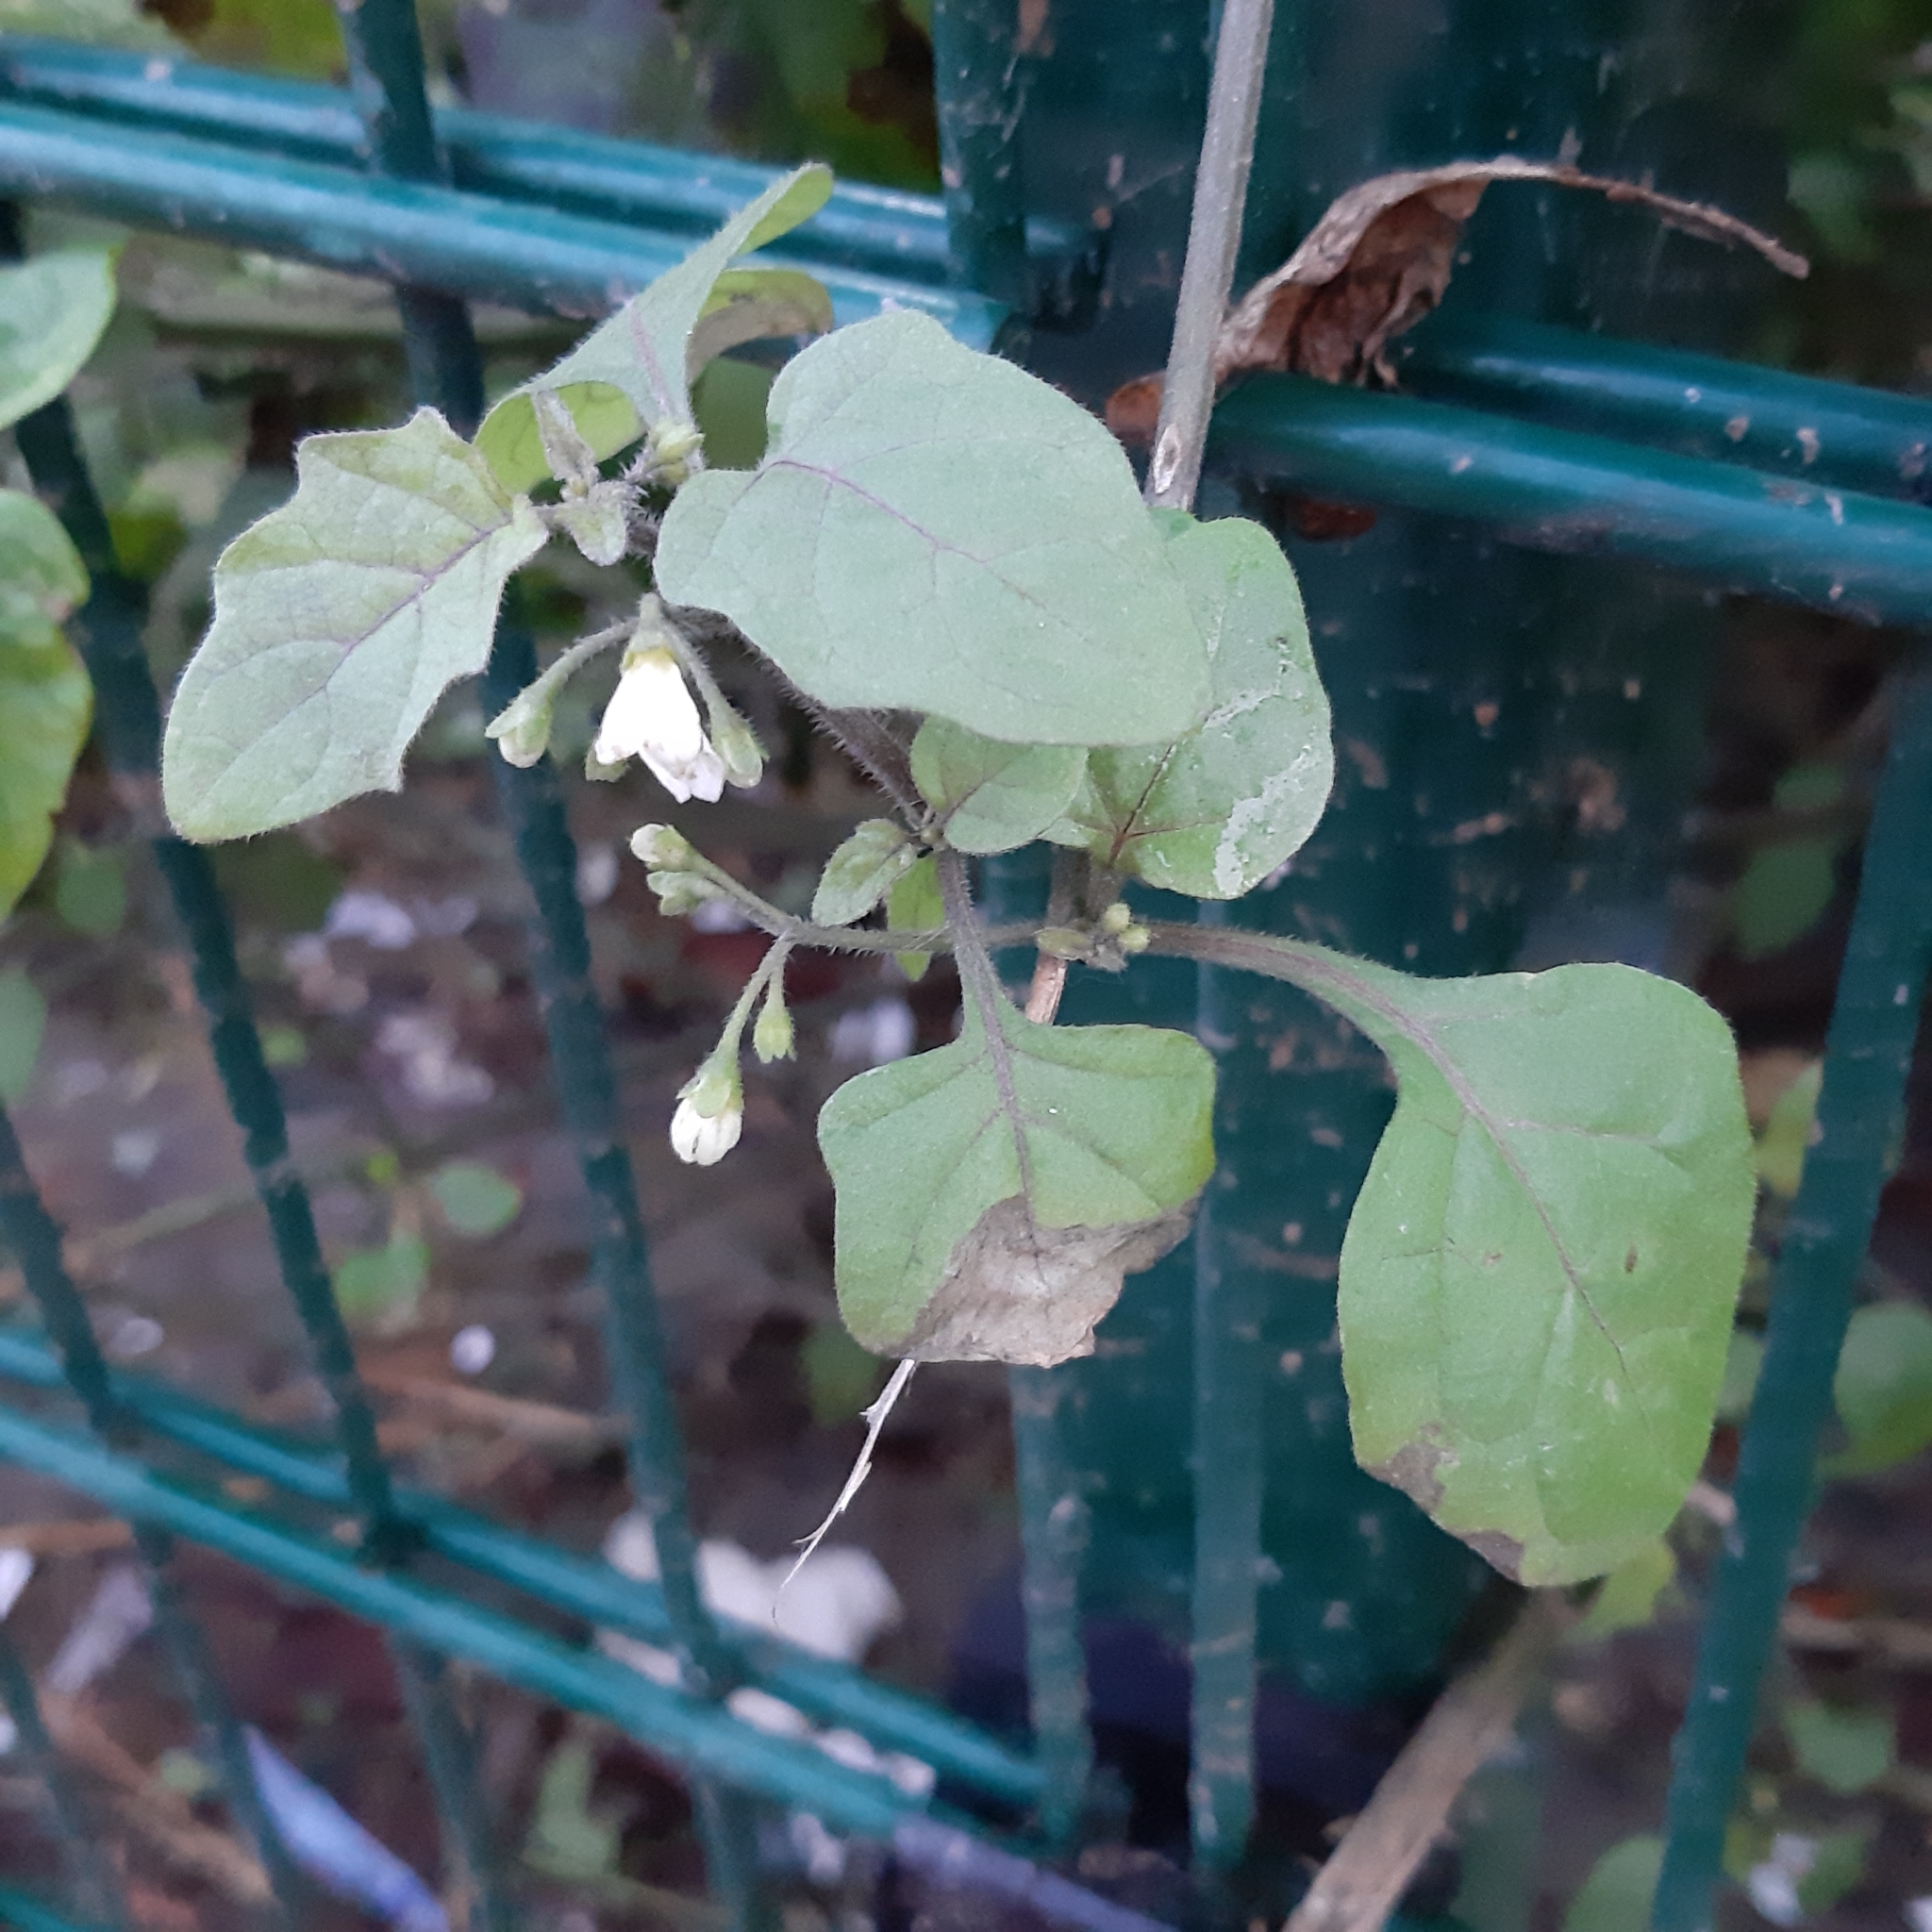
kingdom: Plantae
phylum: Tracheophyta
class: Magnoliopsida
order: Solanales
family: Solanaceae
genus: Solanum
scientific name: Solanum nigrum
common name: Black nightshade
